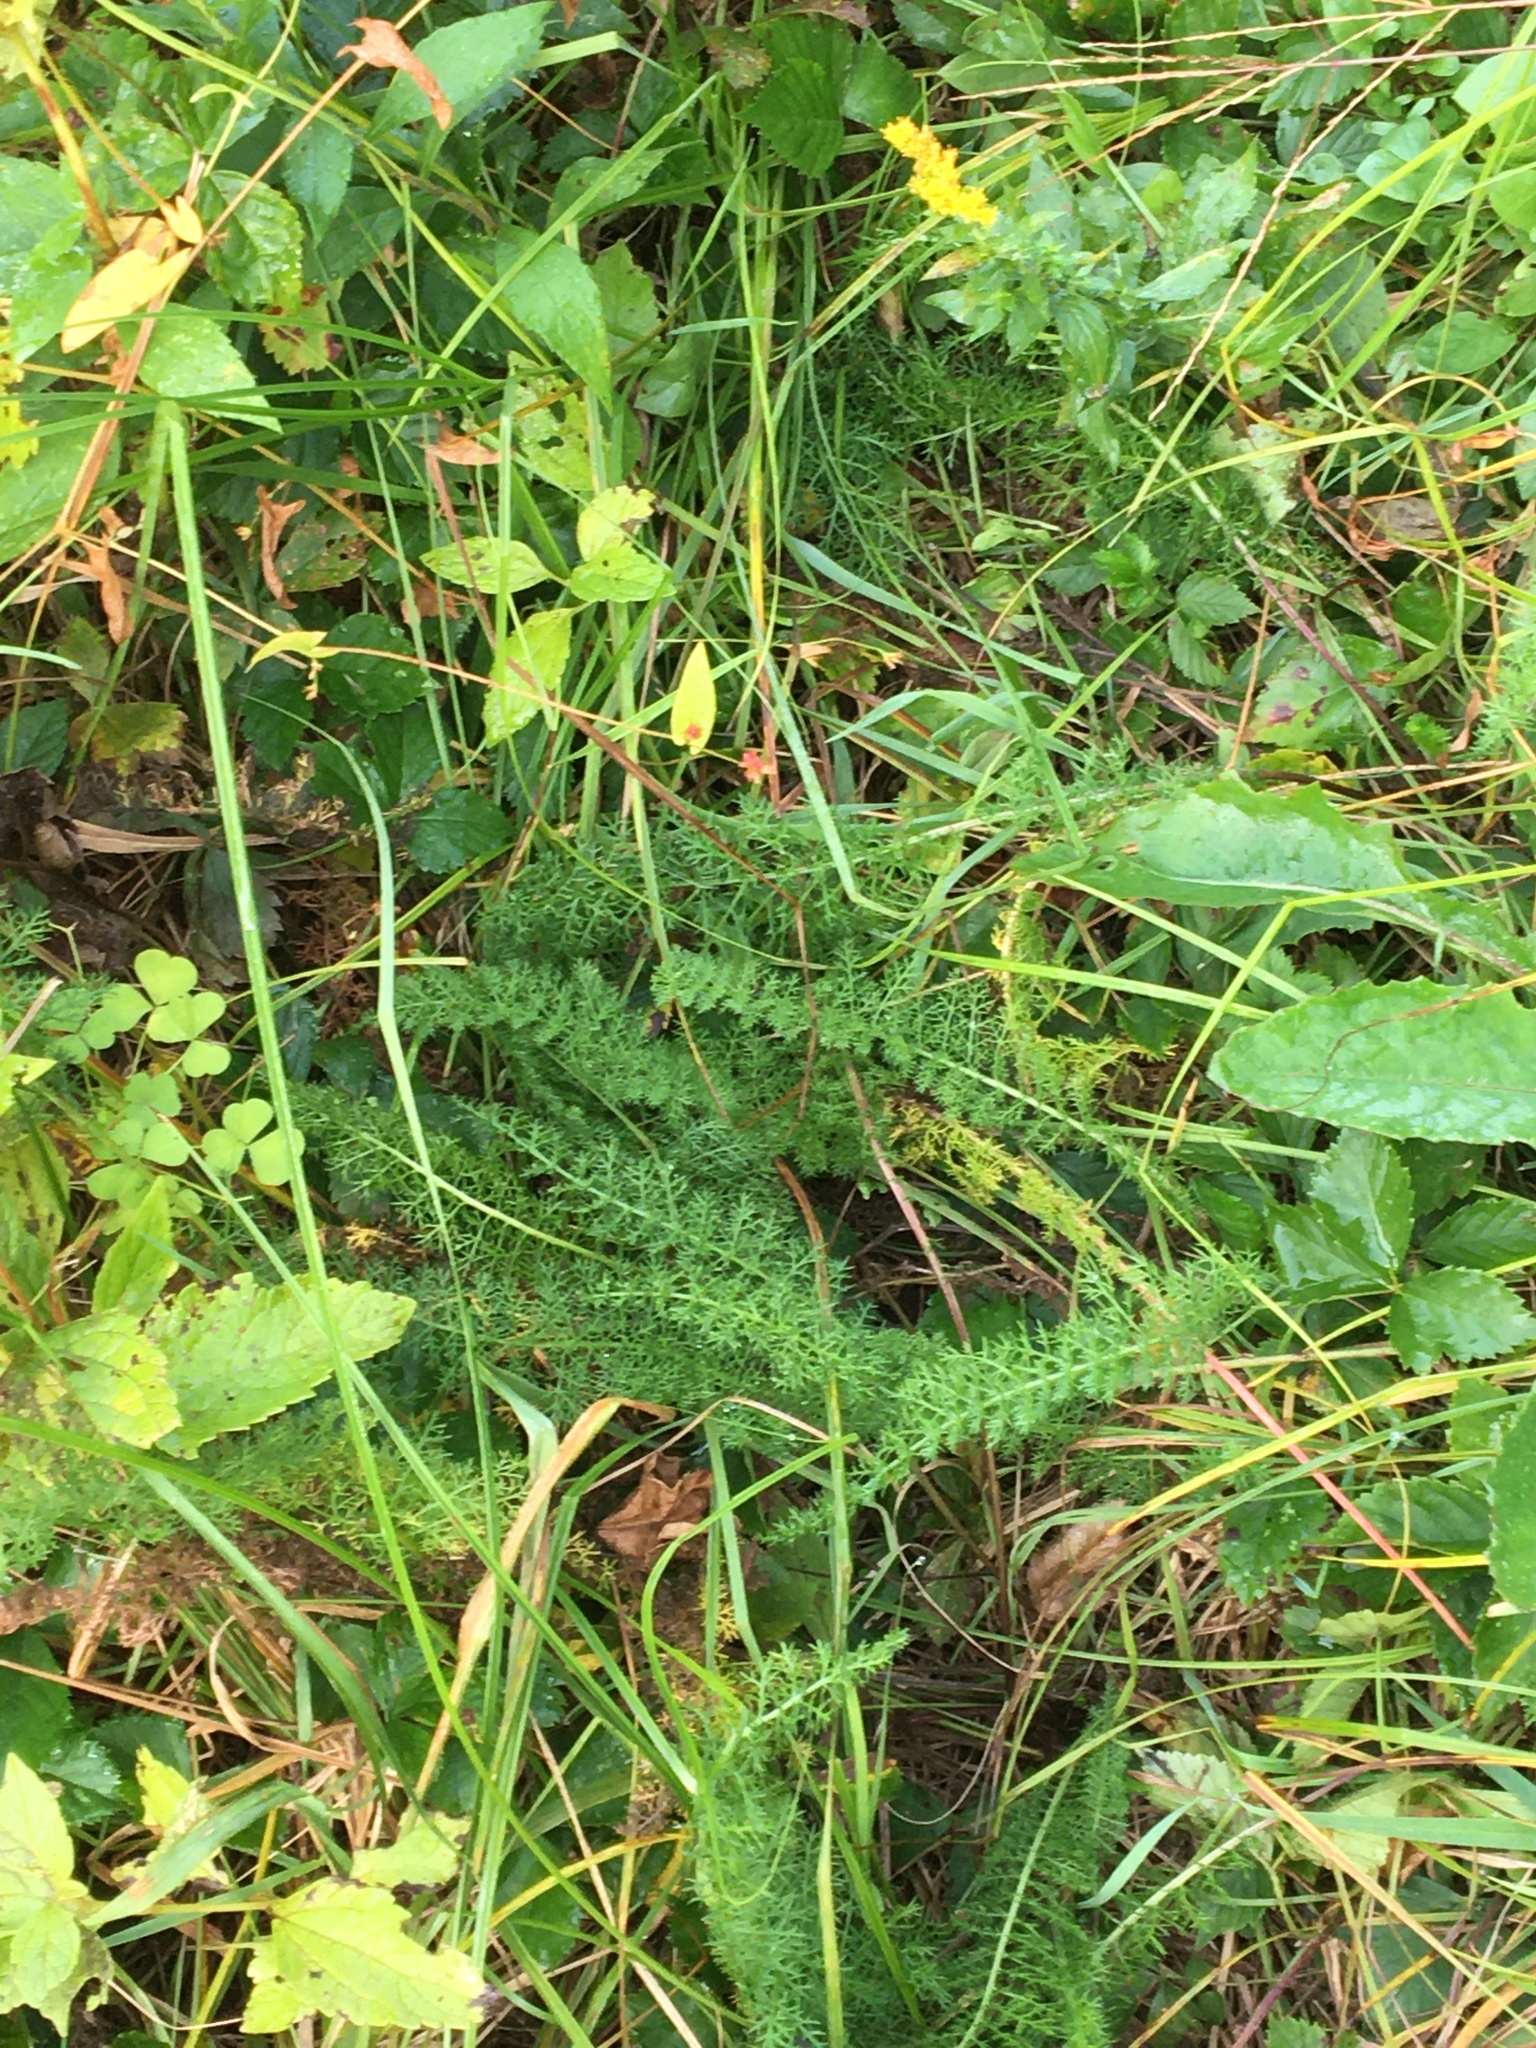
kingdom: Plantae
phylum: Tracheophyta
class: Magnoliopsida
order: Asterales
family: Asteraceae
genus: Achillea
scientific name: Achillea millefolium
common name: Yarrow
